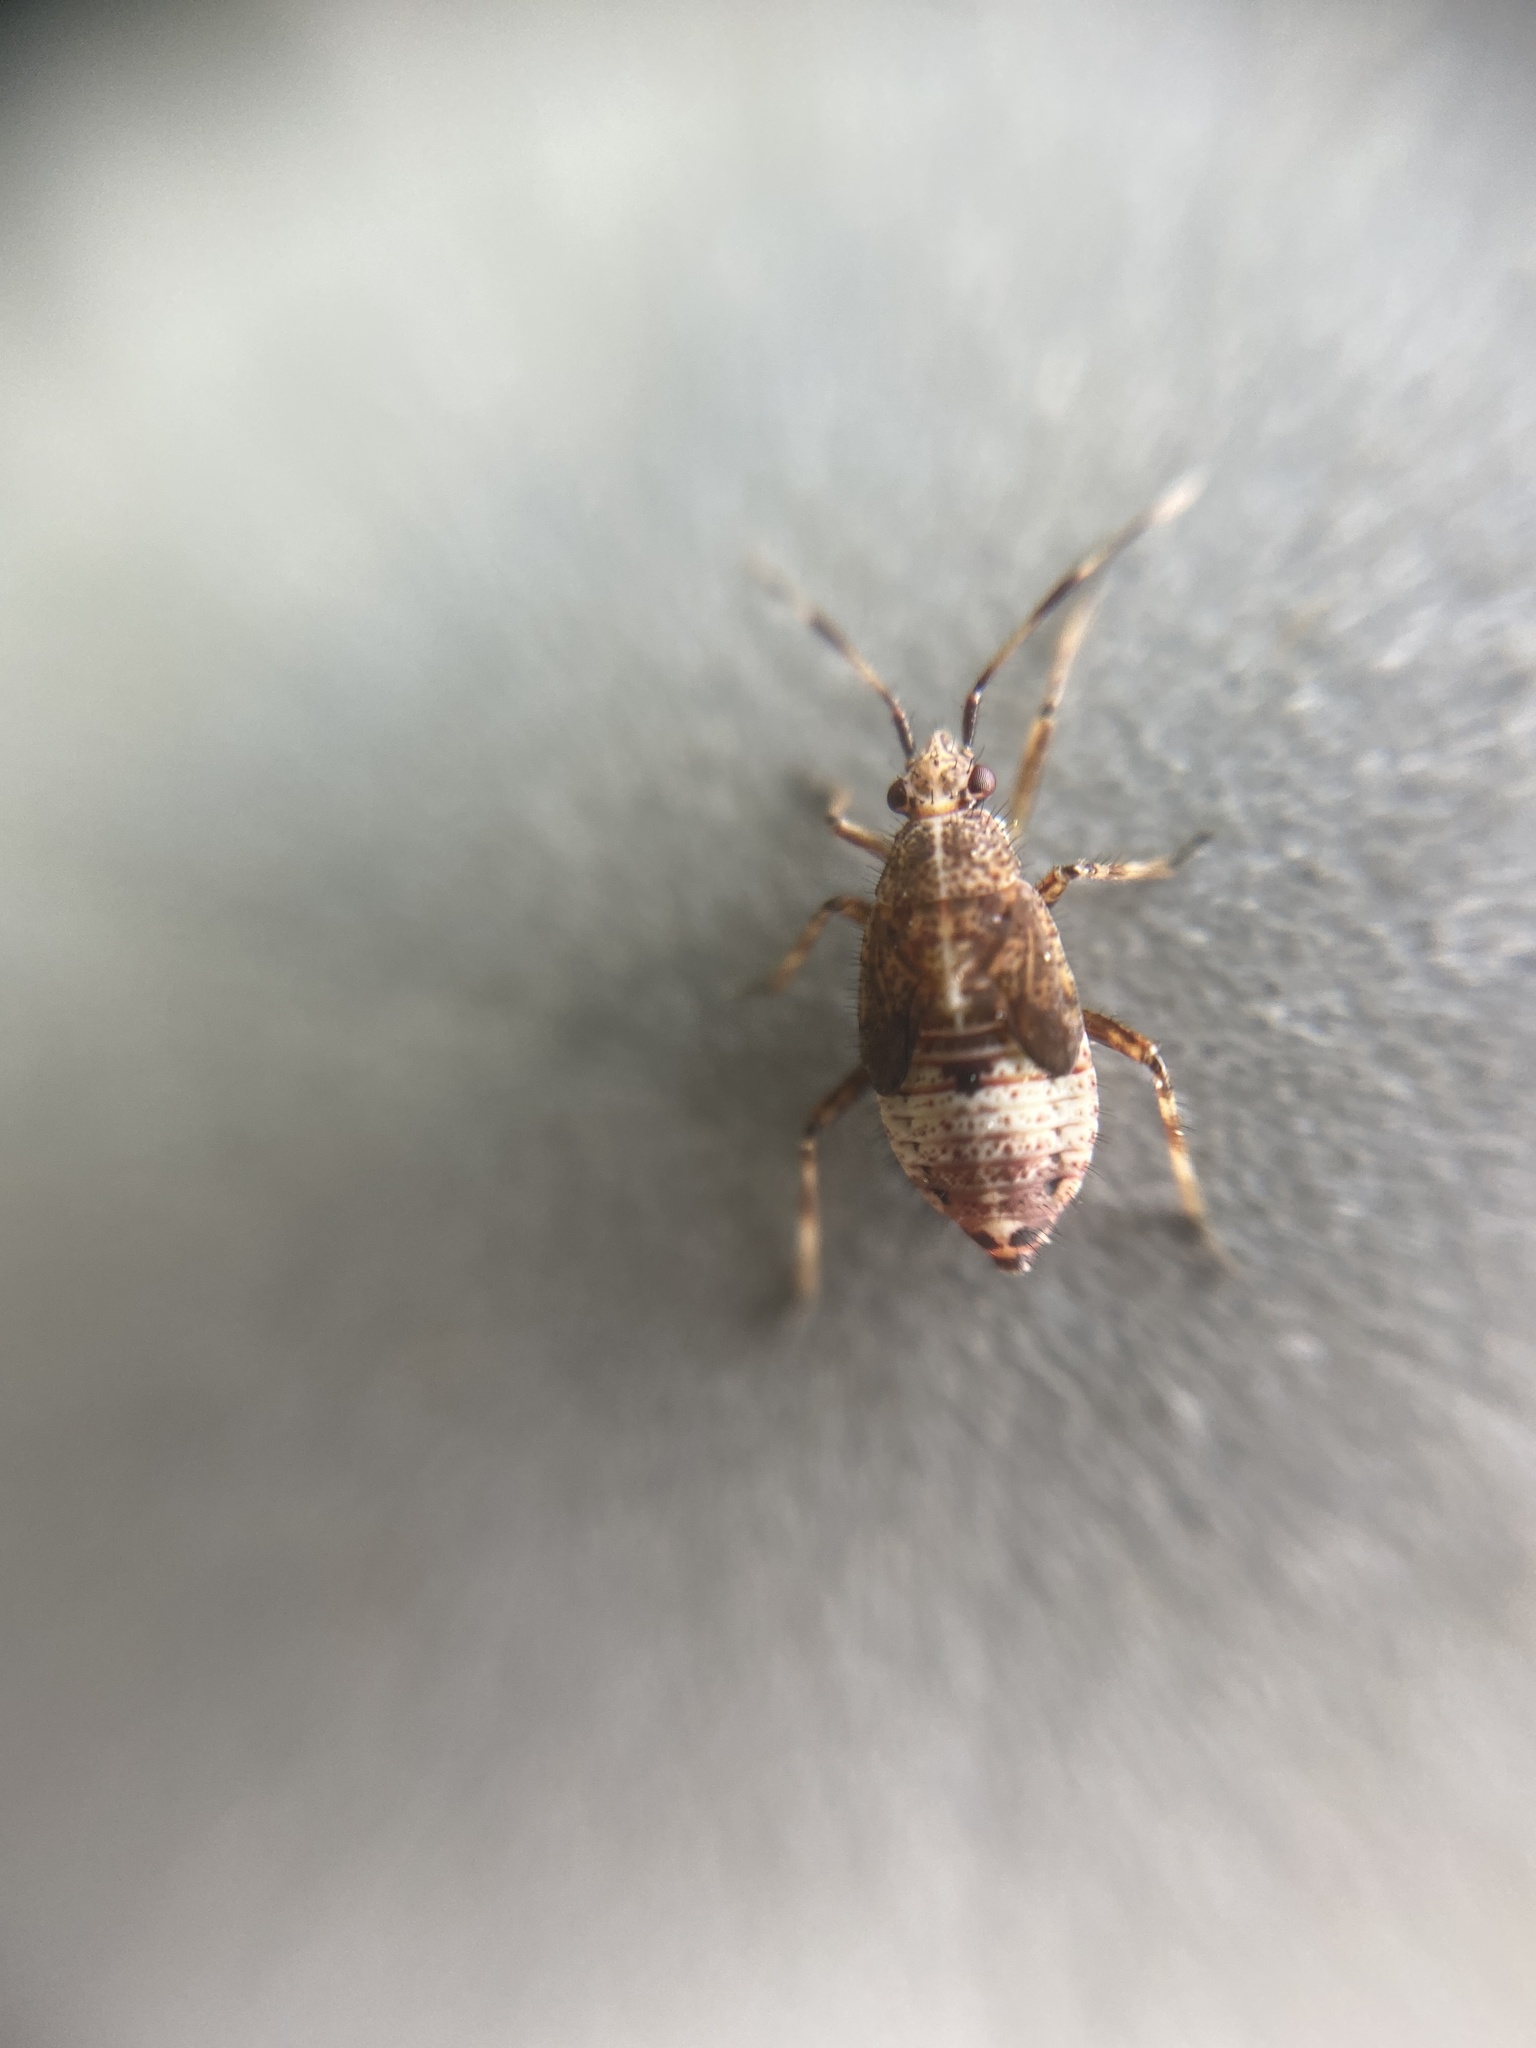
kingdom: Animalia
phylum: Arthropoda
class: Insecta
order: Hemiptera
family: Miridae
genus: Deraeocoris
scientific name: Deraeocoris flavilinea
